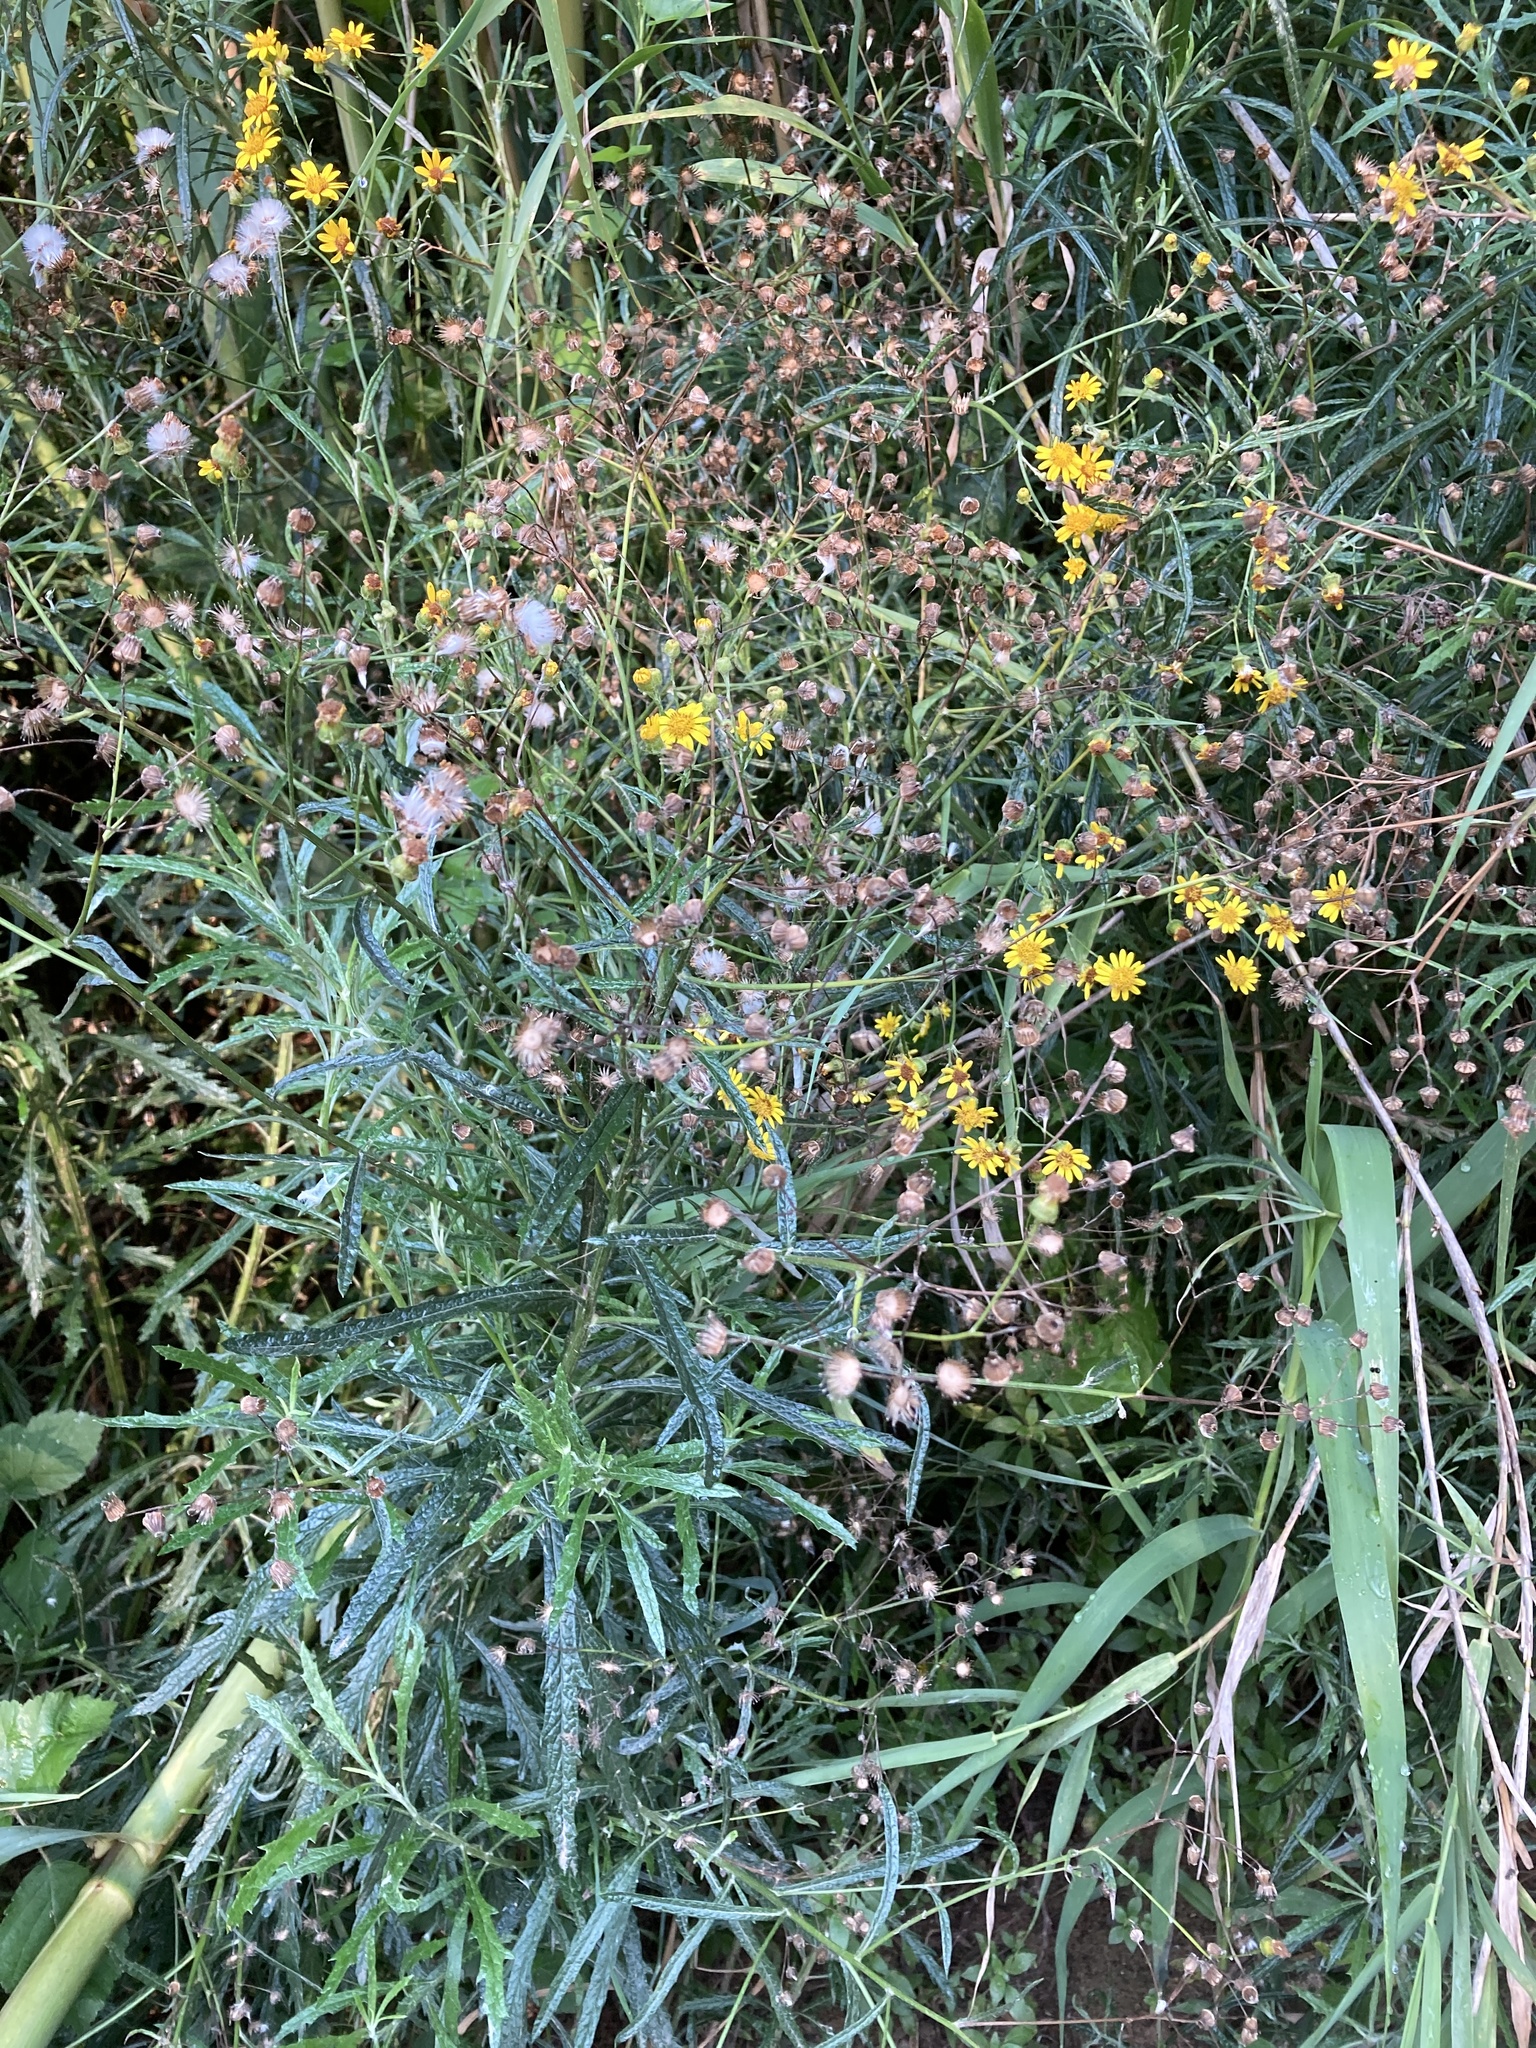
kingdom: Plantae
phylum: Tracheophyta
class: Magnoliopsida
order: Asterales
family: Asteraceae
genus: Senecio
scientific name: Senecio pterophorus
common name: Shoddy ragwort
